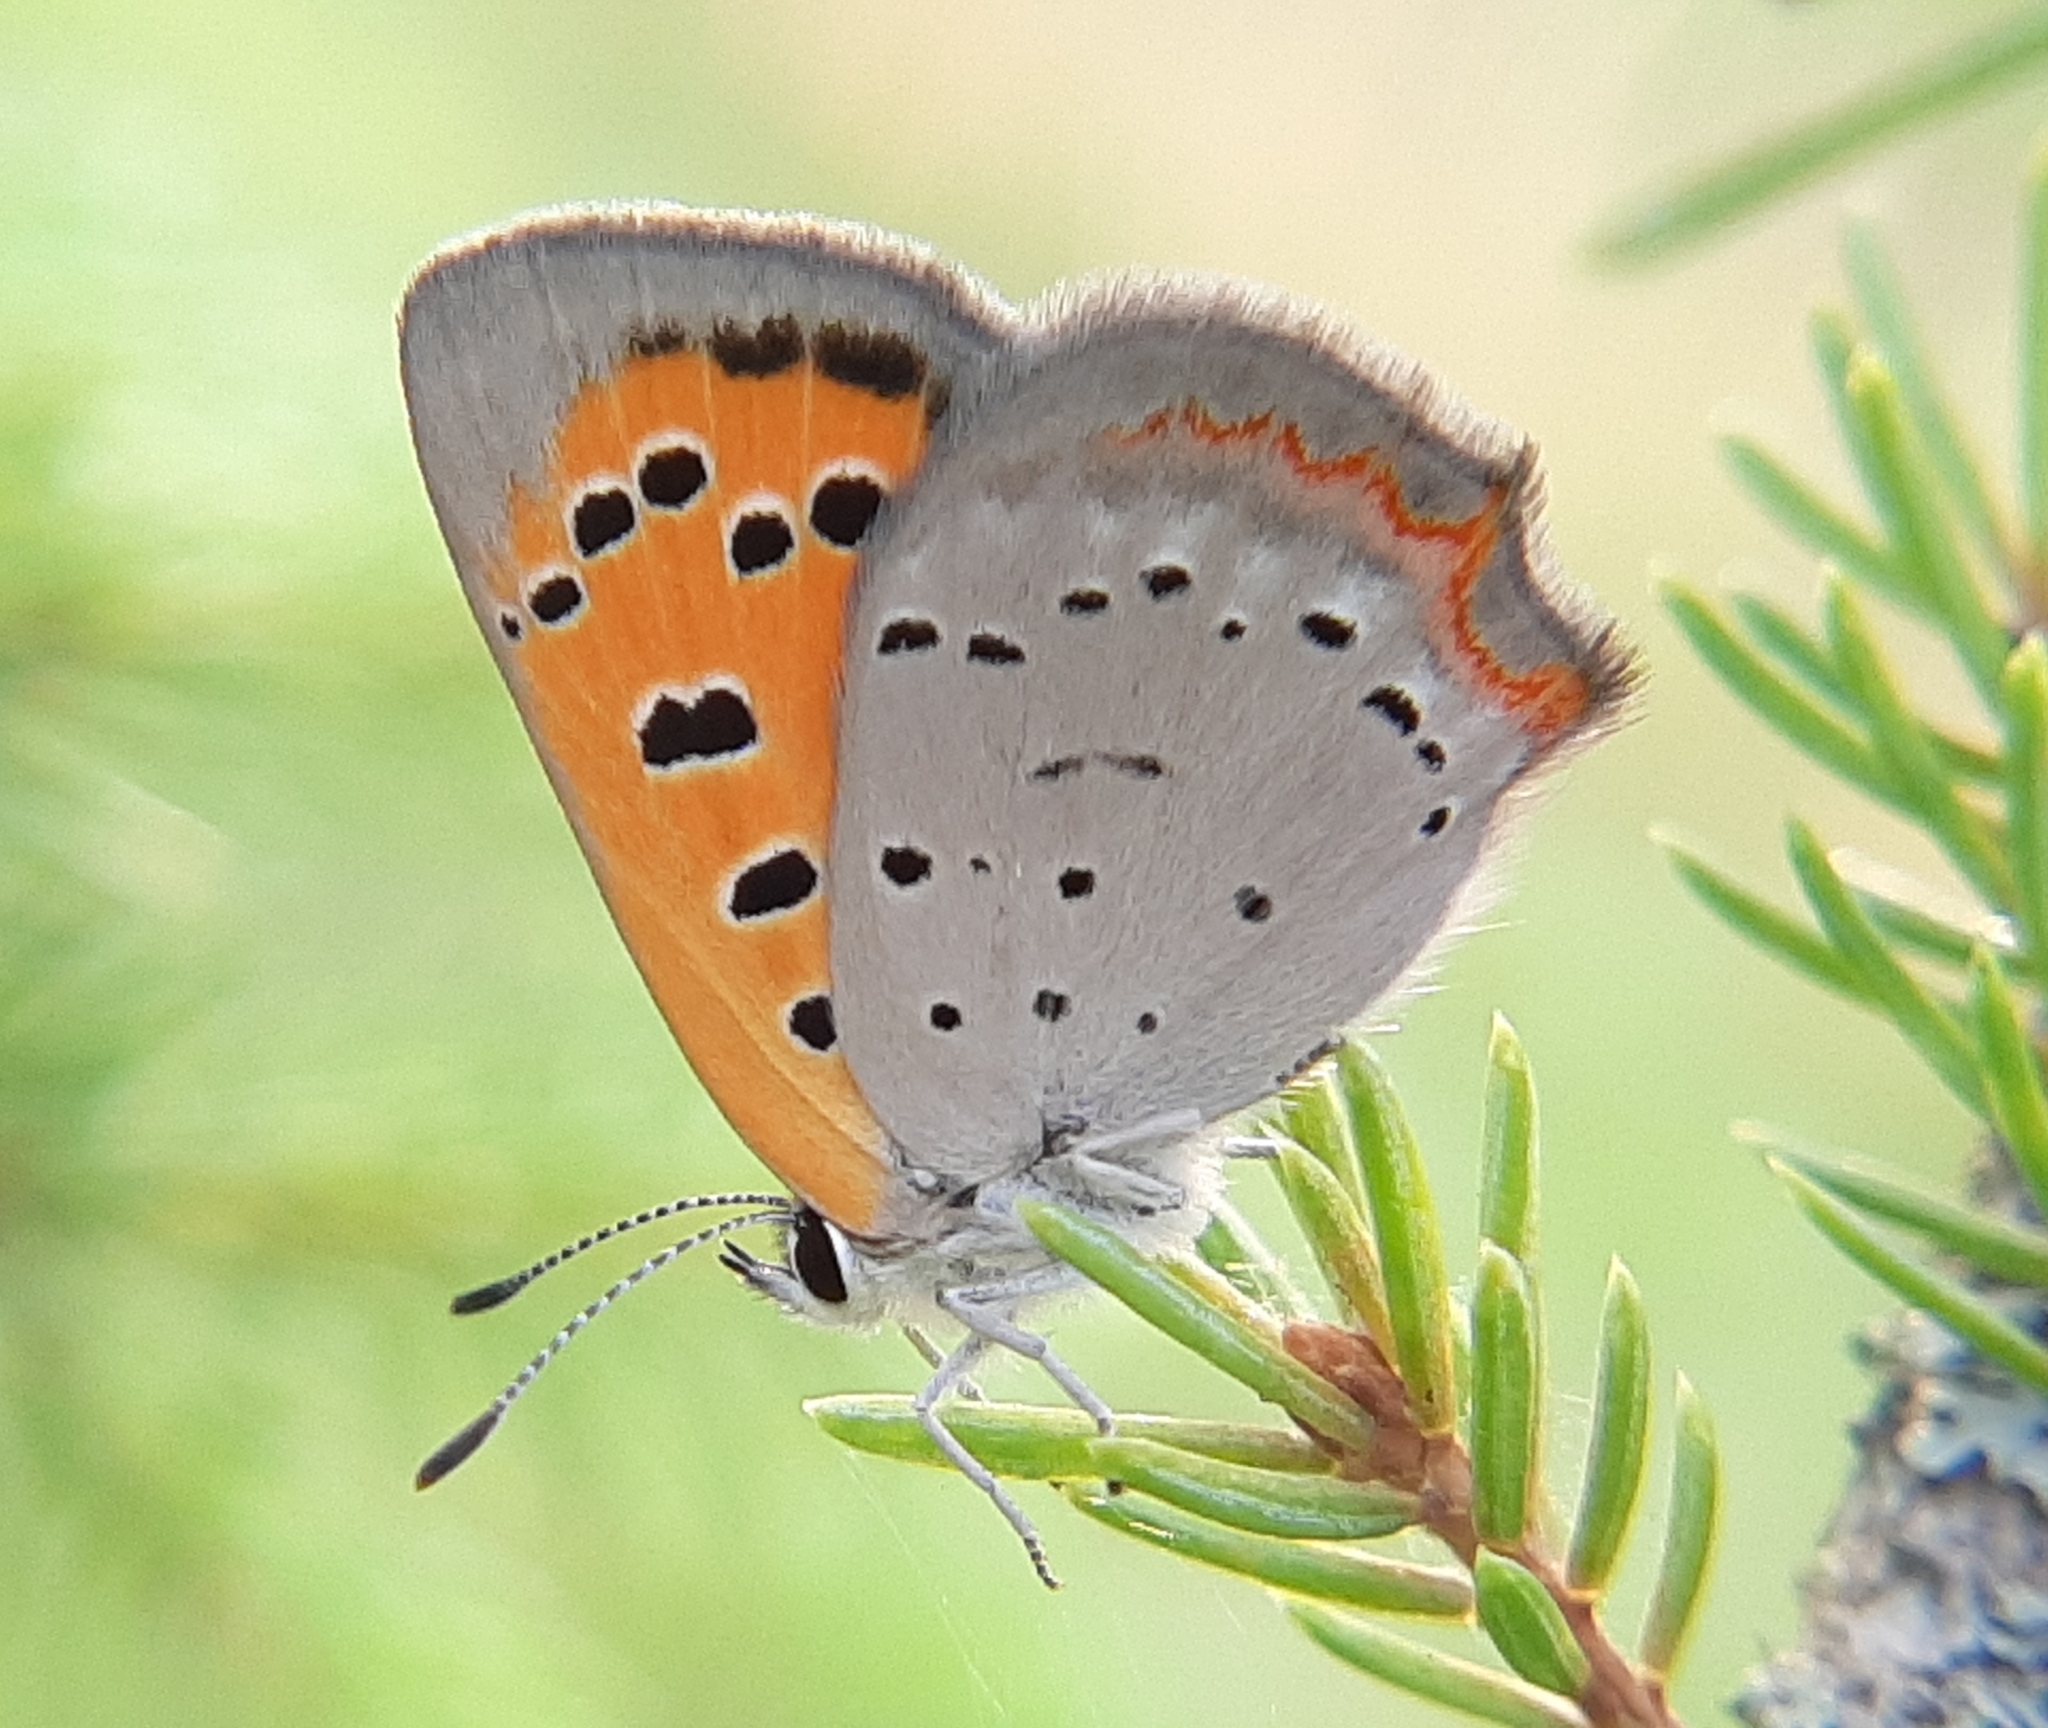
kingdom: Animalia
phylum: Arthropoda
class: Insecta
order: Lepidoptera
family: Lycaenidae
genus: Lycaena
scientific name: Lycaena hypophlaeas
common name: American copper
